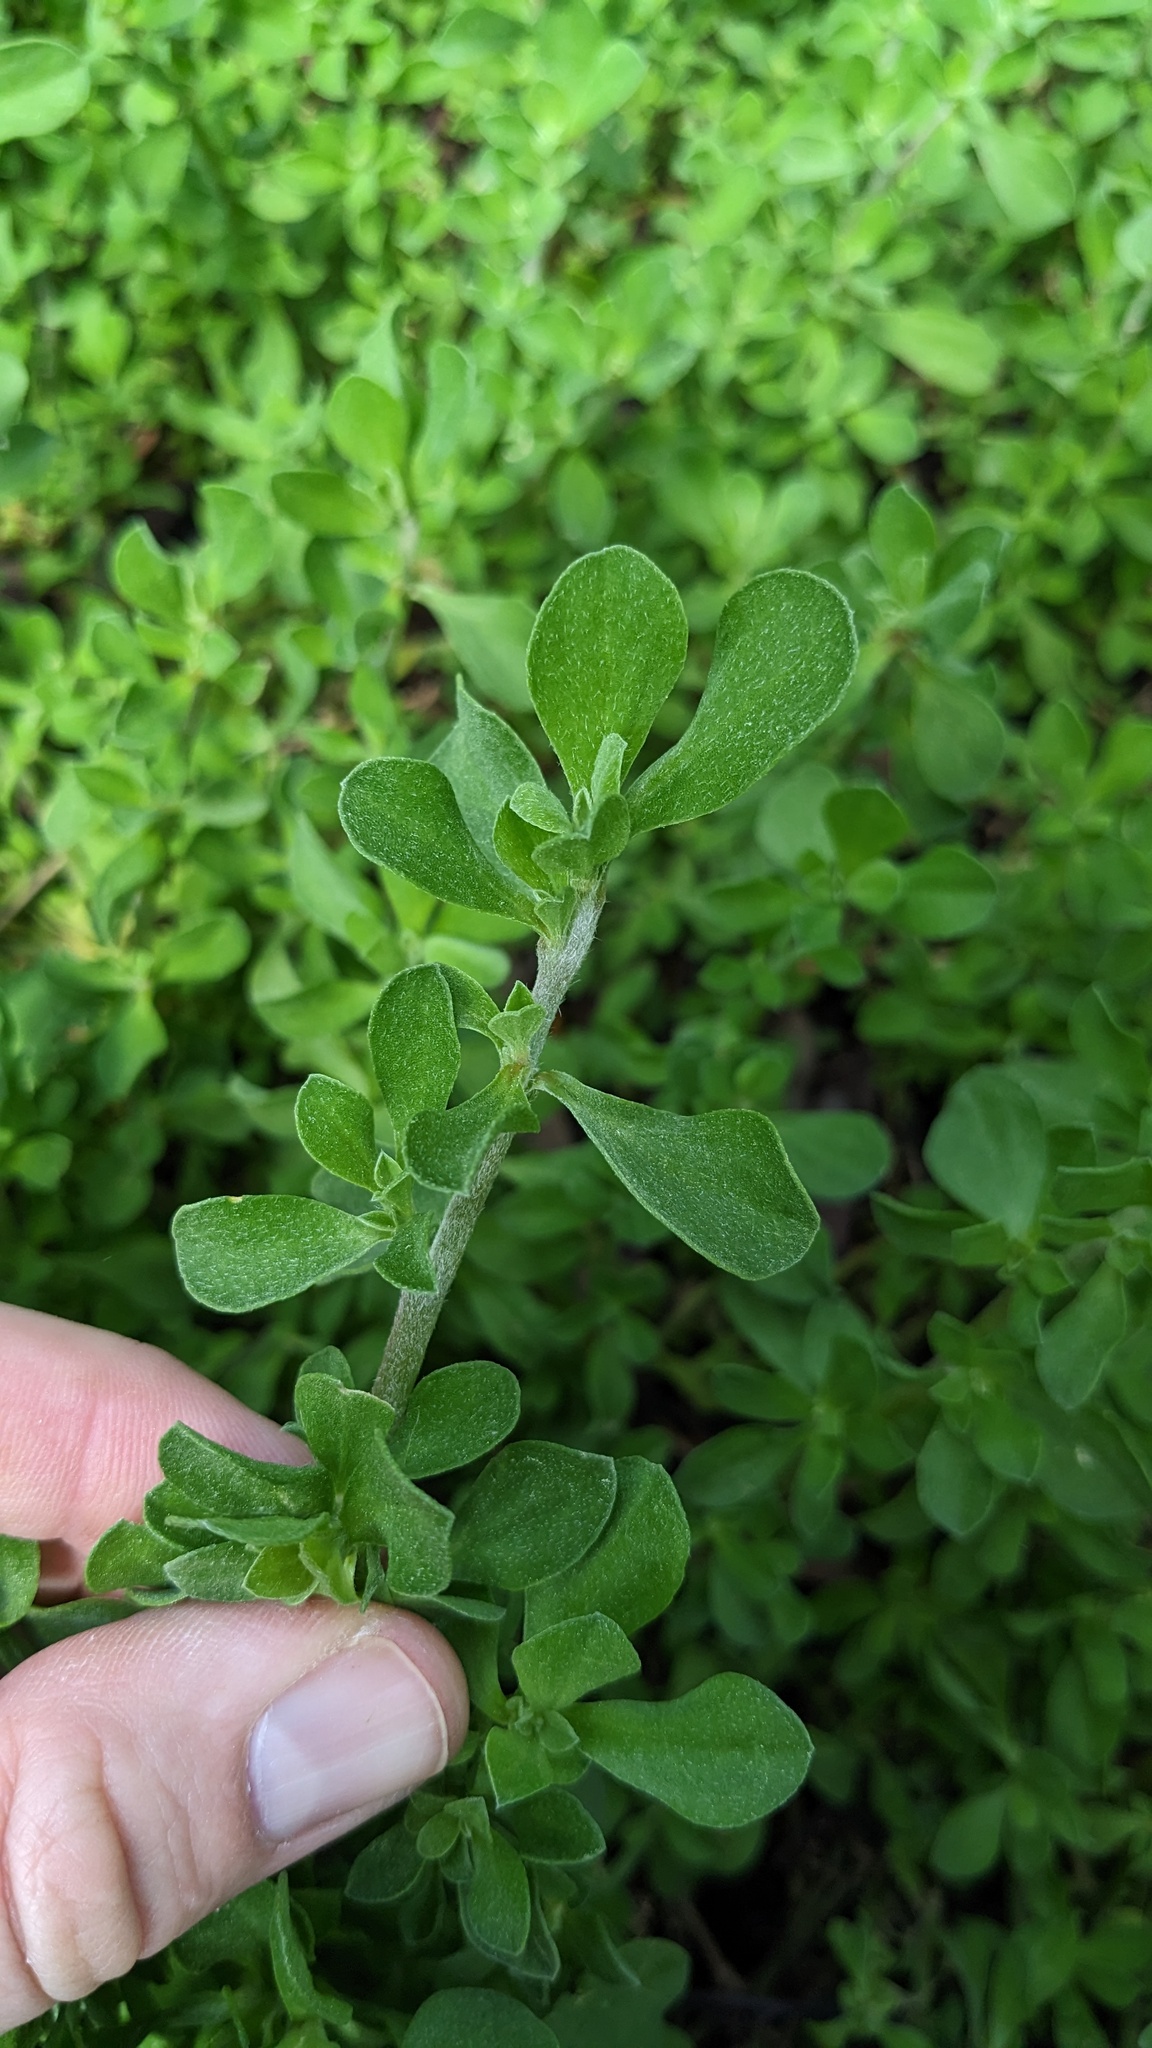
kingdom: Plantae
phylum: Tracheophyta
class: Magnoliopsida
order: Caryophyllales
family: Aizoaceae
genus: Aizoon
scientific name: Aizoon pubescens
